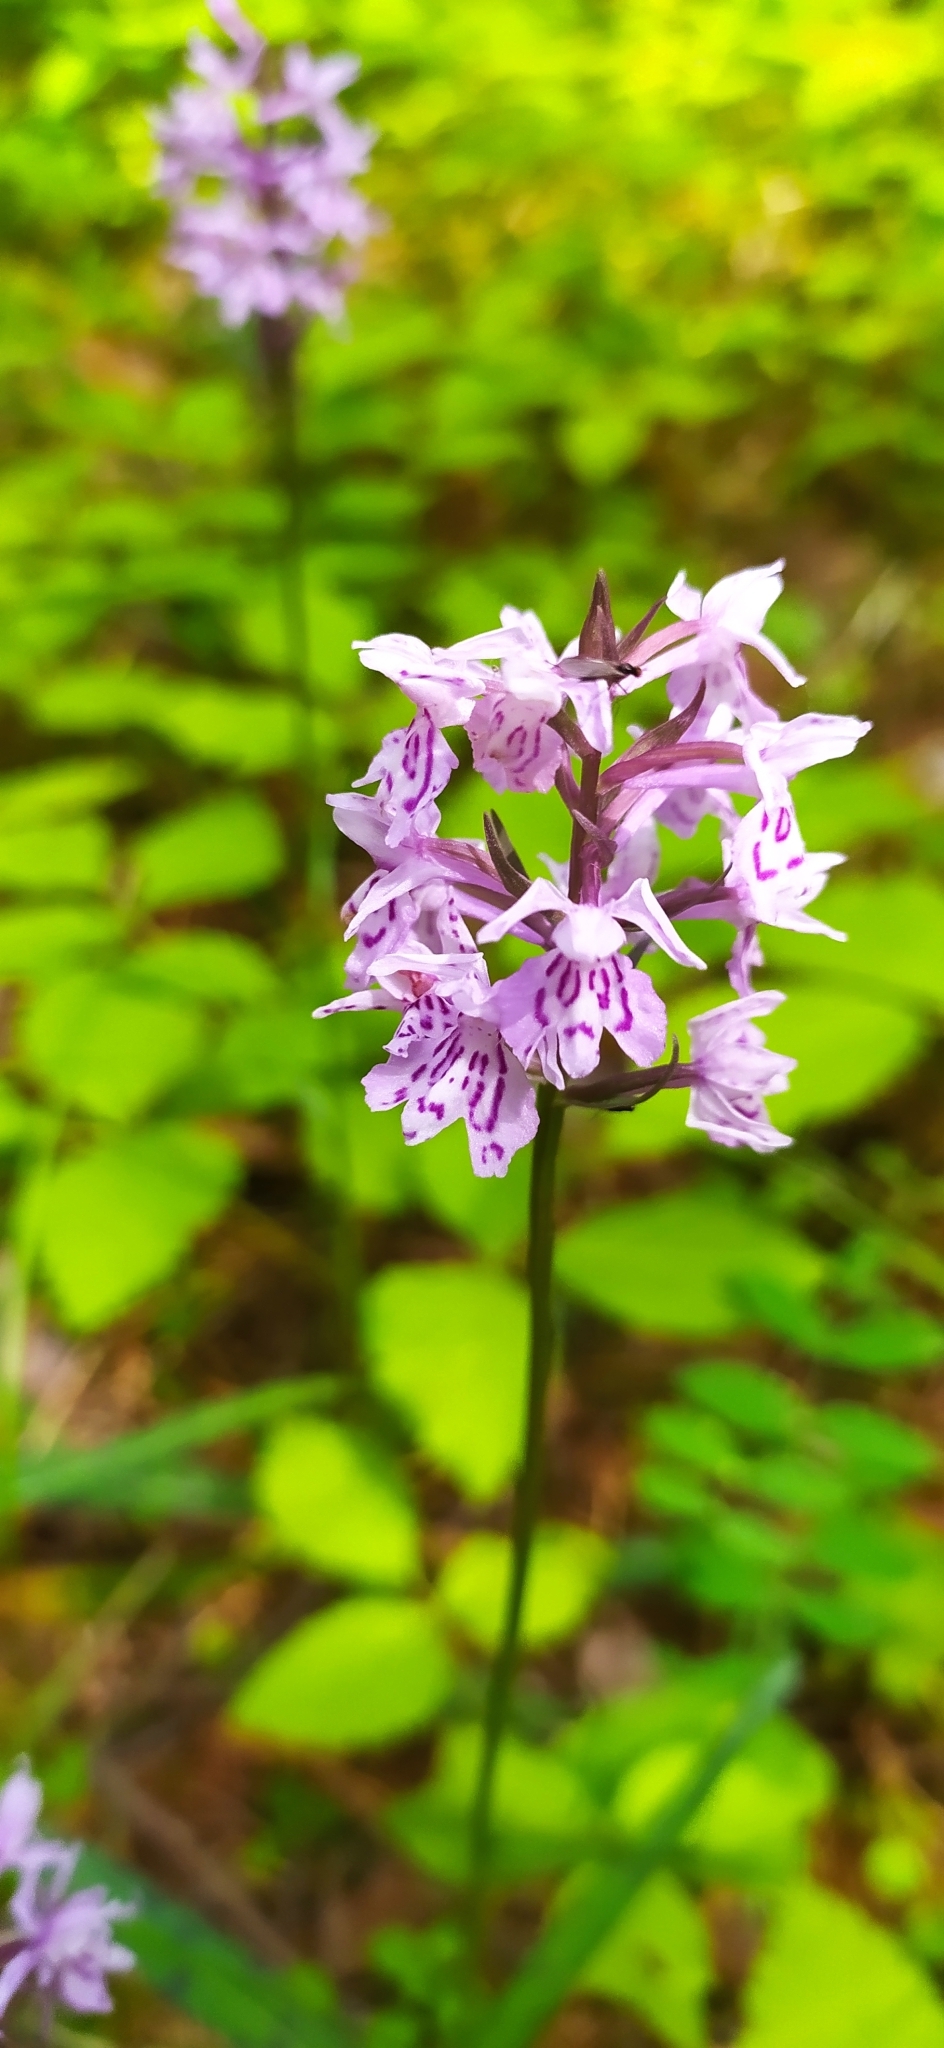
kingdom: Plantae
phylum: Tracheophyta
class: Liliopsida
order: Asparagales
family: Orchidaceae
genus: Dactylorhiza
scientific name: Dactylorhiza maculata
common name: Heath spotted-orchid
